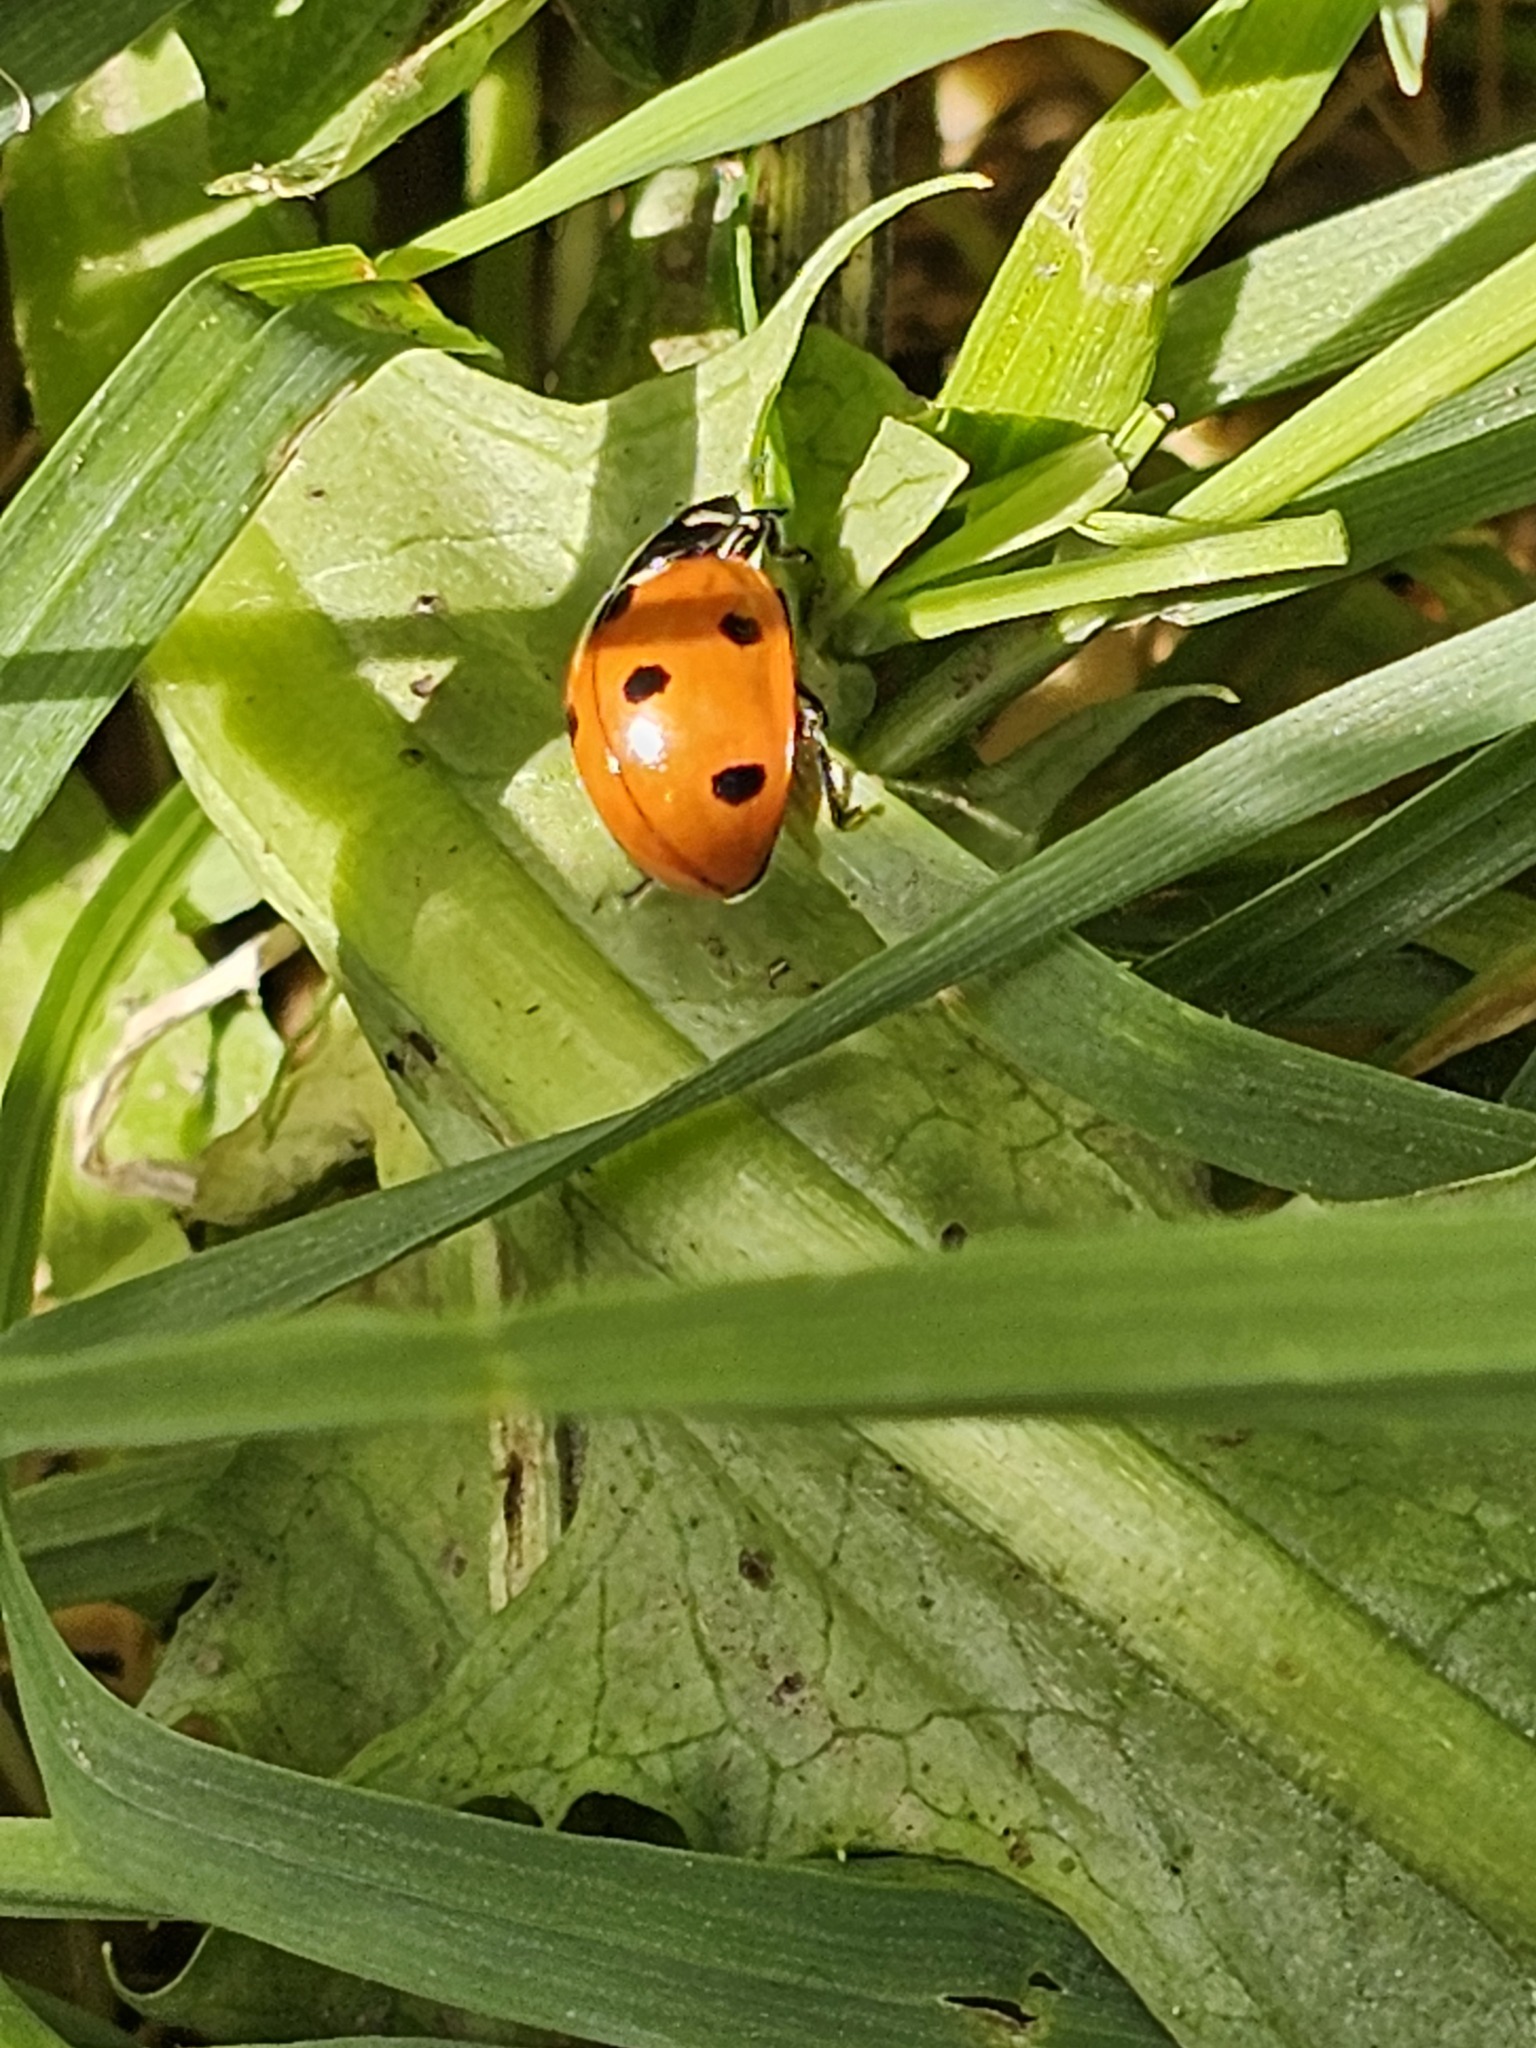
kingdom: Animalia
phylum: Arthropoda
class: Insecta
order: Coleoptera
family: Coccinellidae
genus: Coccinella
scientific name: Coccinella septempunctata
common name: Sevenspotted lady beetle
